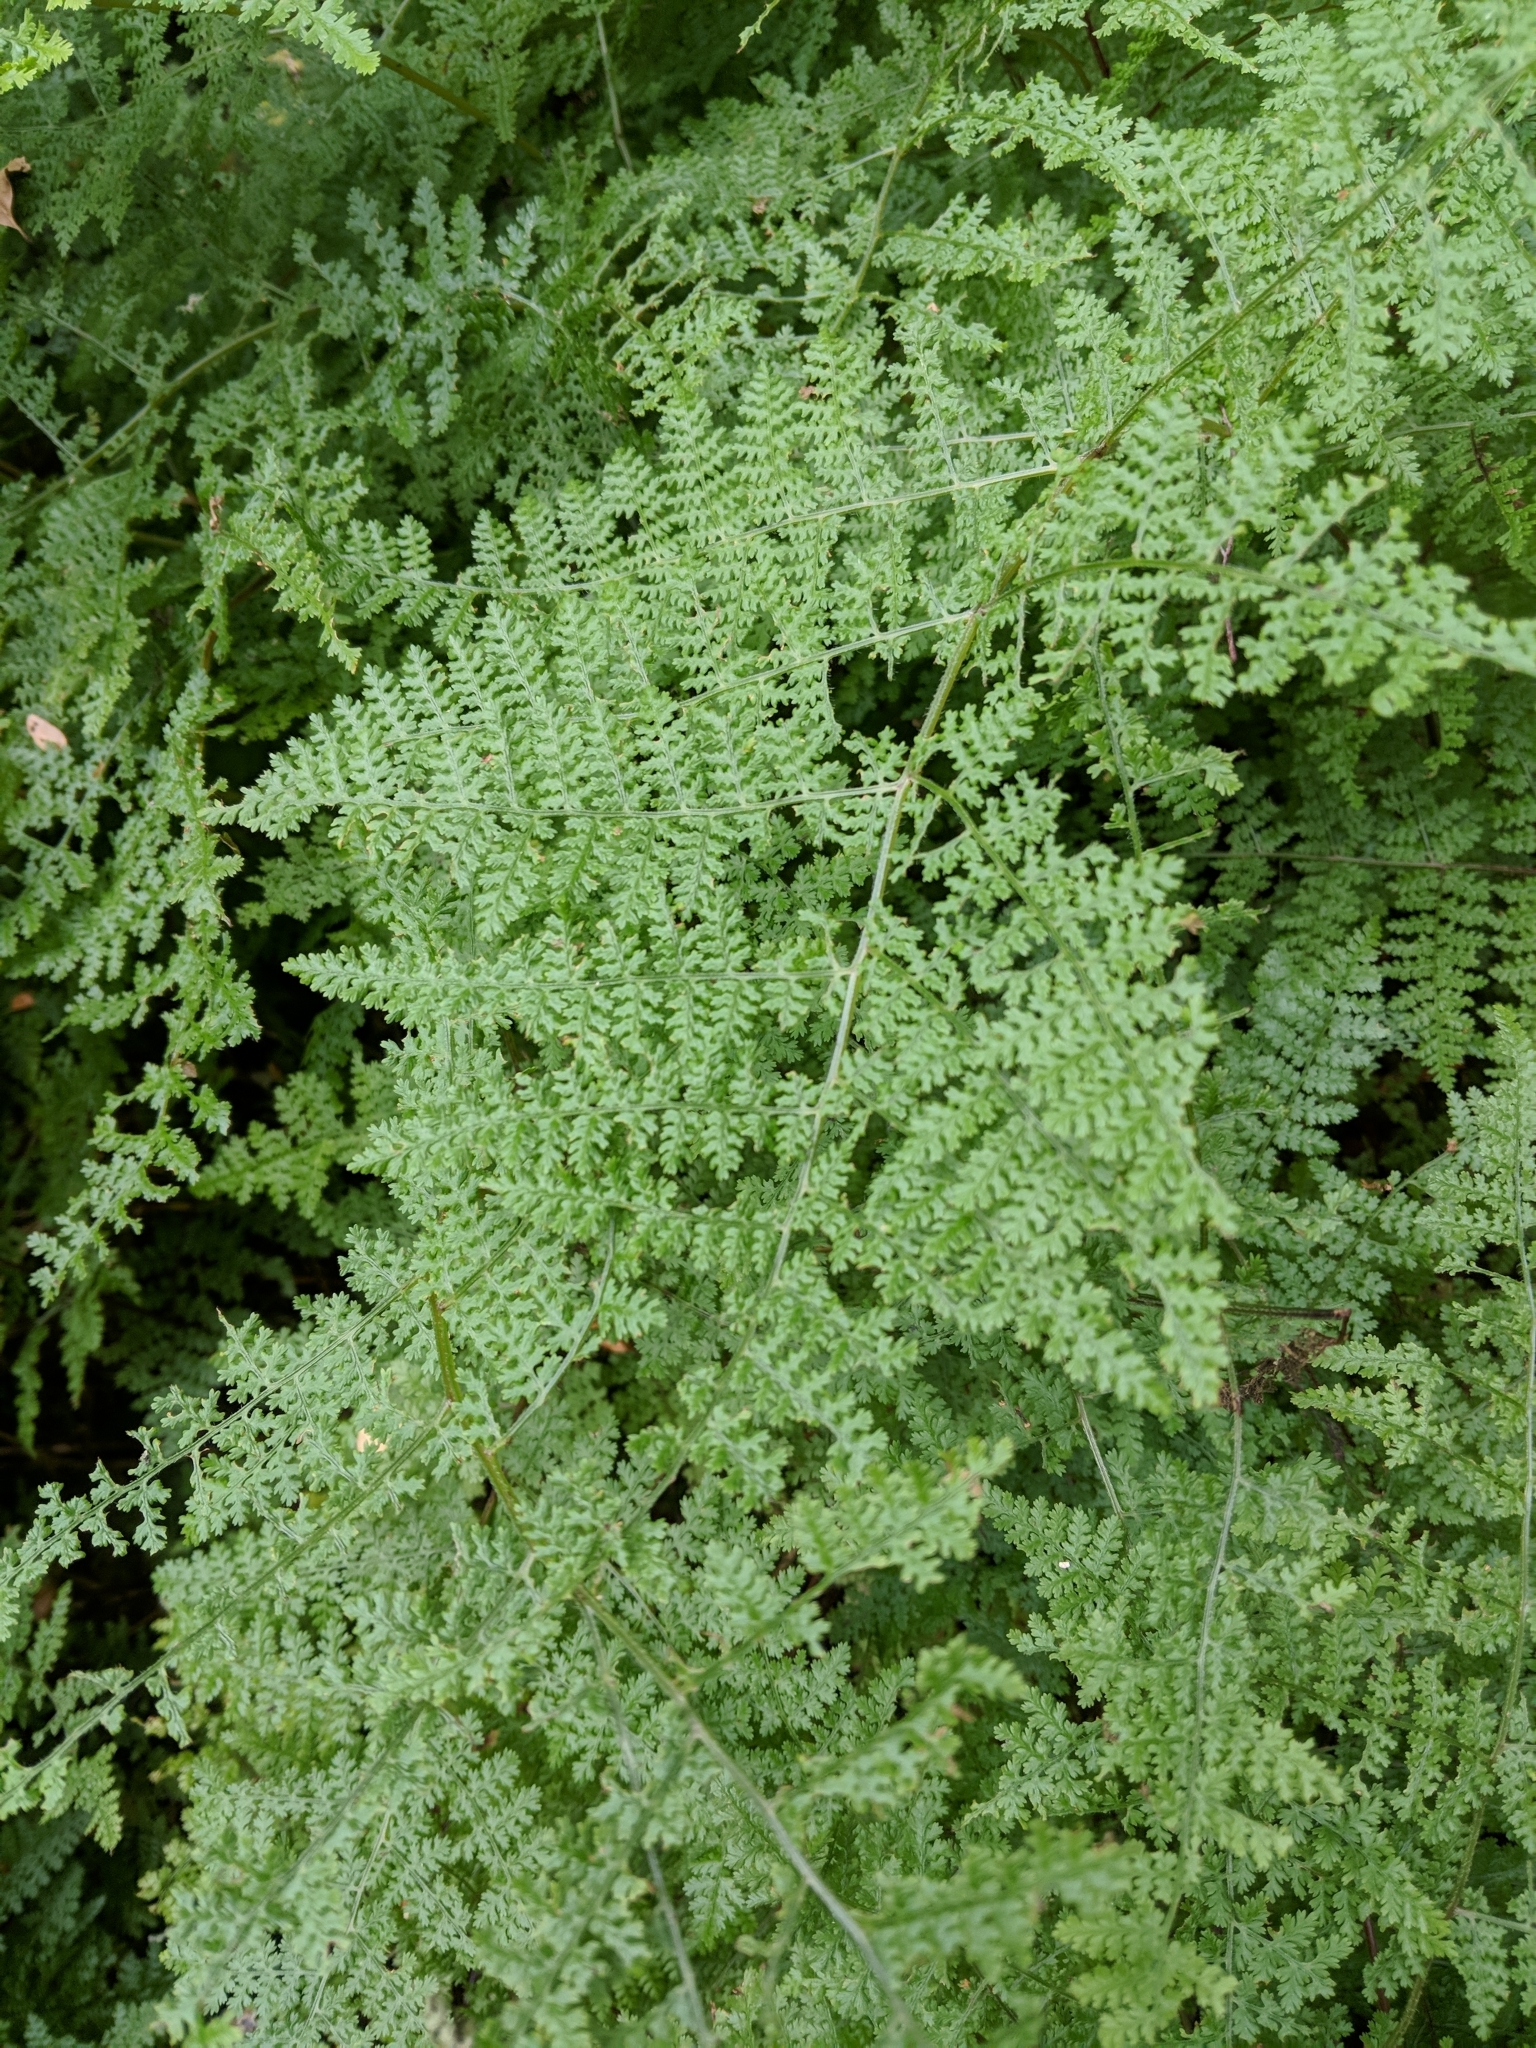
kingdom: Plantae
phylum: Tracheophyta
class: Polypodiopsida
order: Polypodiales
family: Dennstaedtiaceae
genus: Hypolepis
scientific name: Hypolepis millefolium
